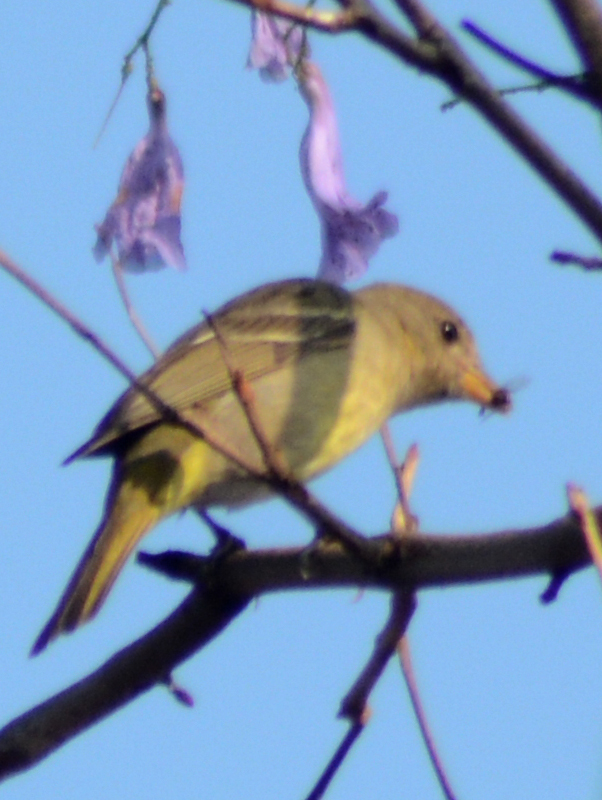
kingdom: Animalia
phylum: Chordata
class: Aves
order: Passeriformes
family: Cardinalidae
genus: Piranga
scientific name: Piranga ludoviciana
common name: Western tanager
